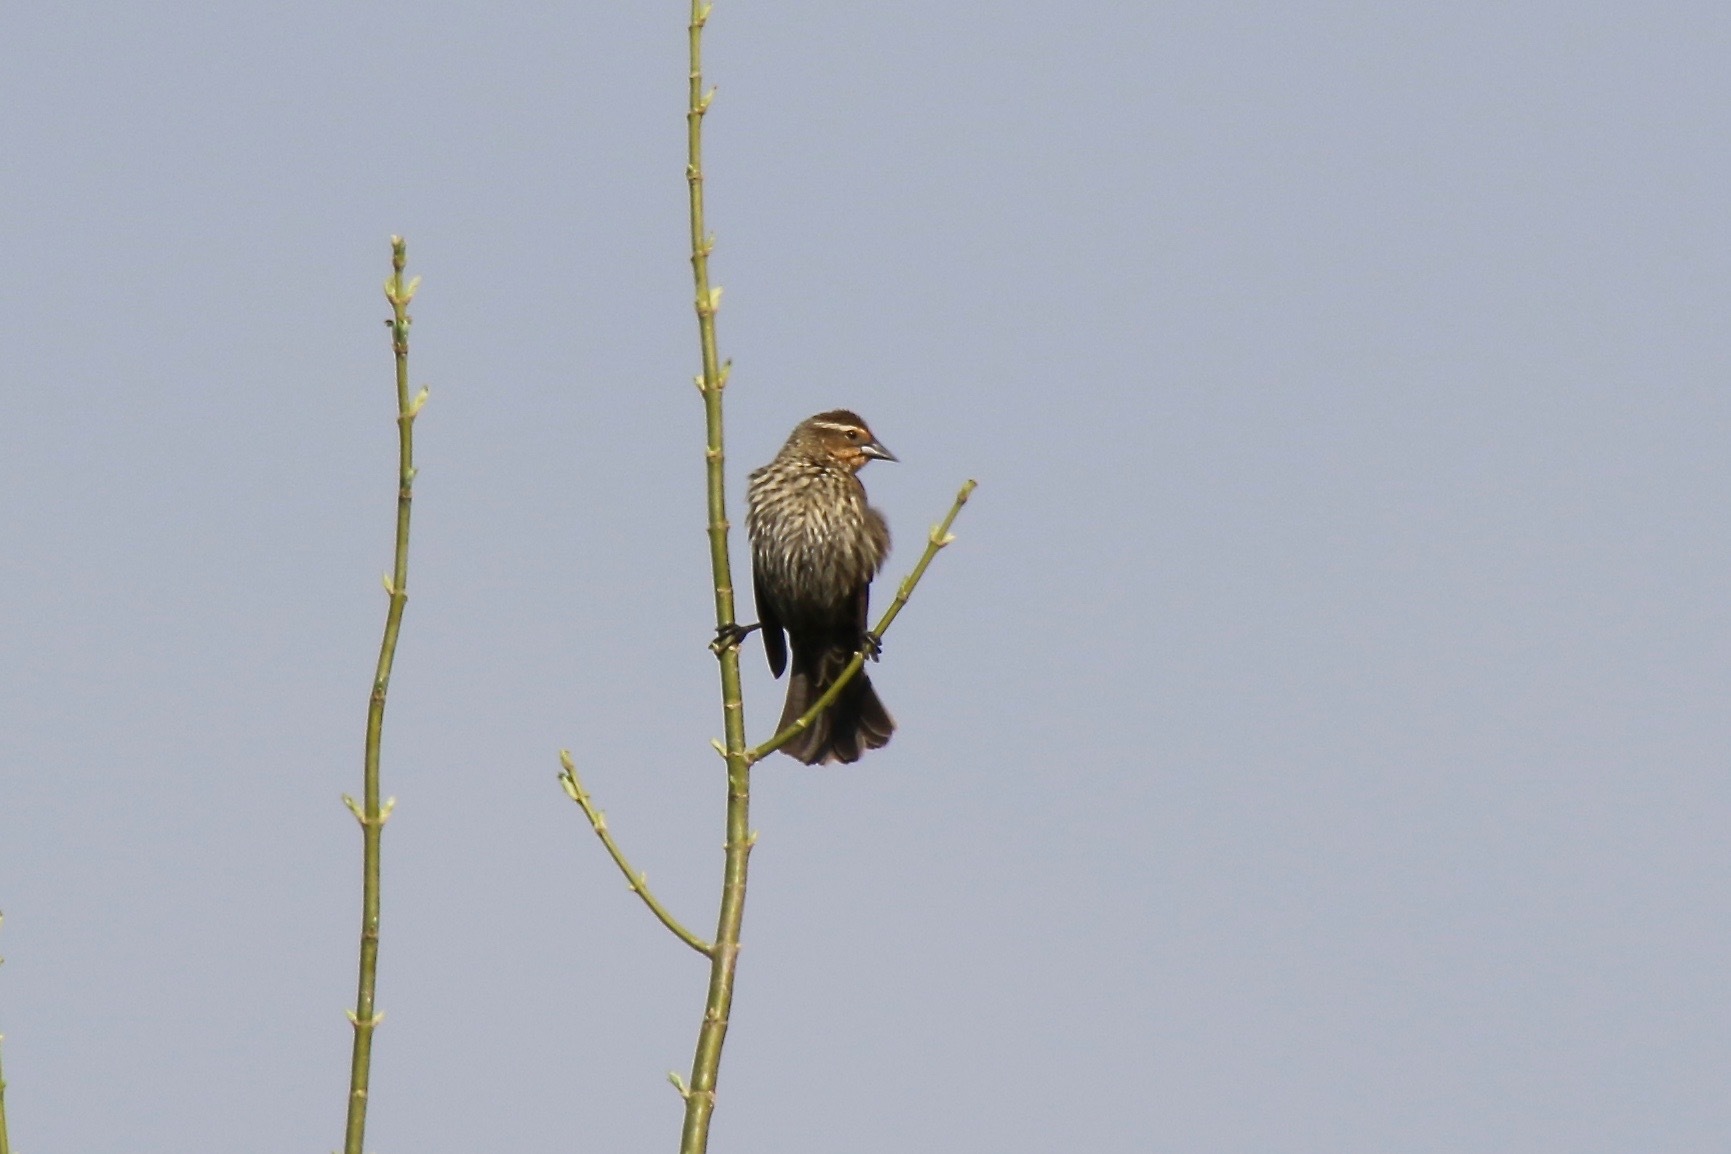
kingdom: Animalia
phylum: Chordata
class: Aves
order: Passeriformes
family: Icteridae
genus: Agelaius
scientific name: Agelaius phoeniceus
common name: Red-winged blackbird
